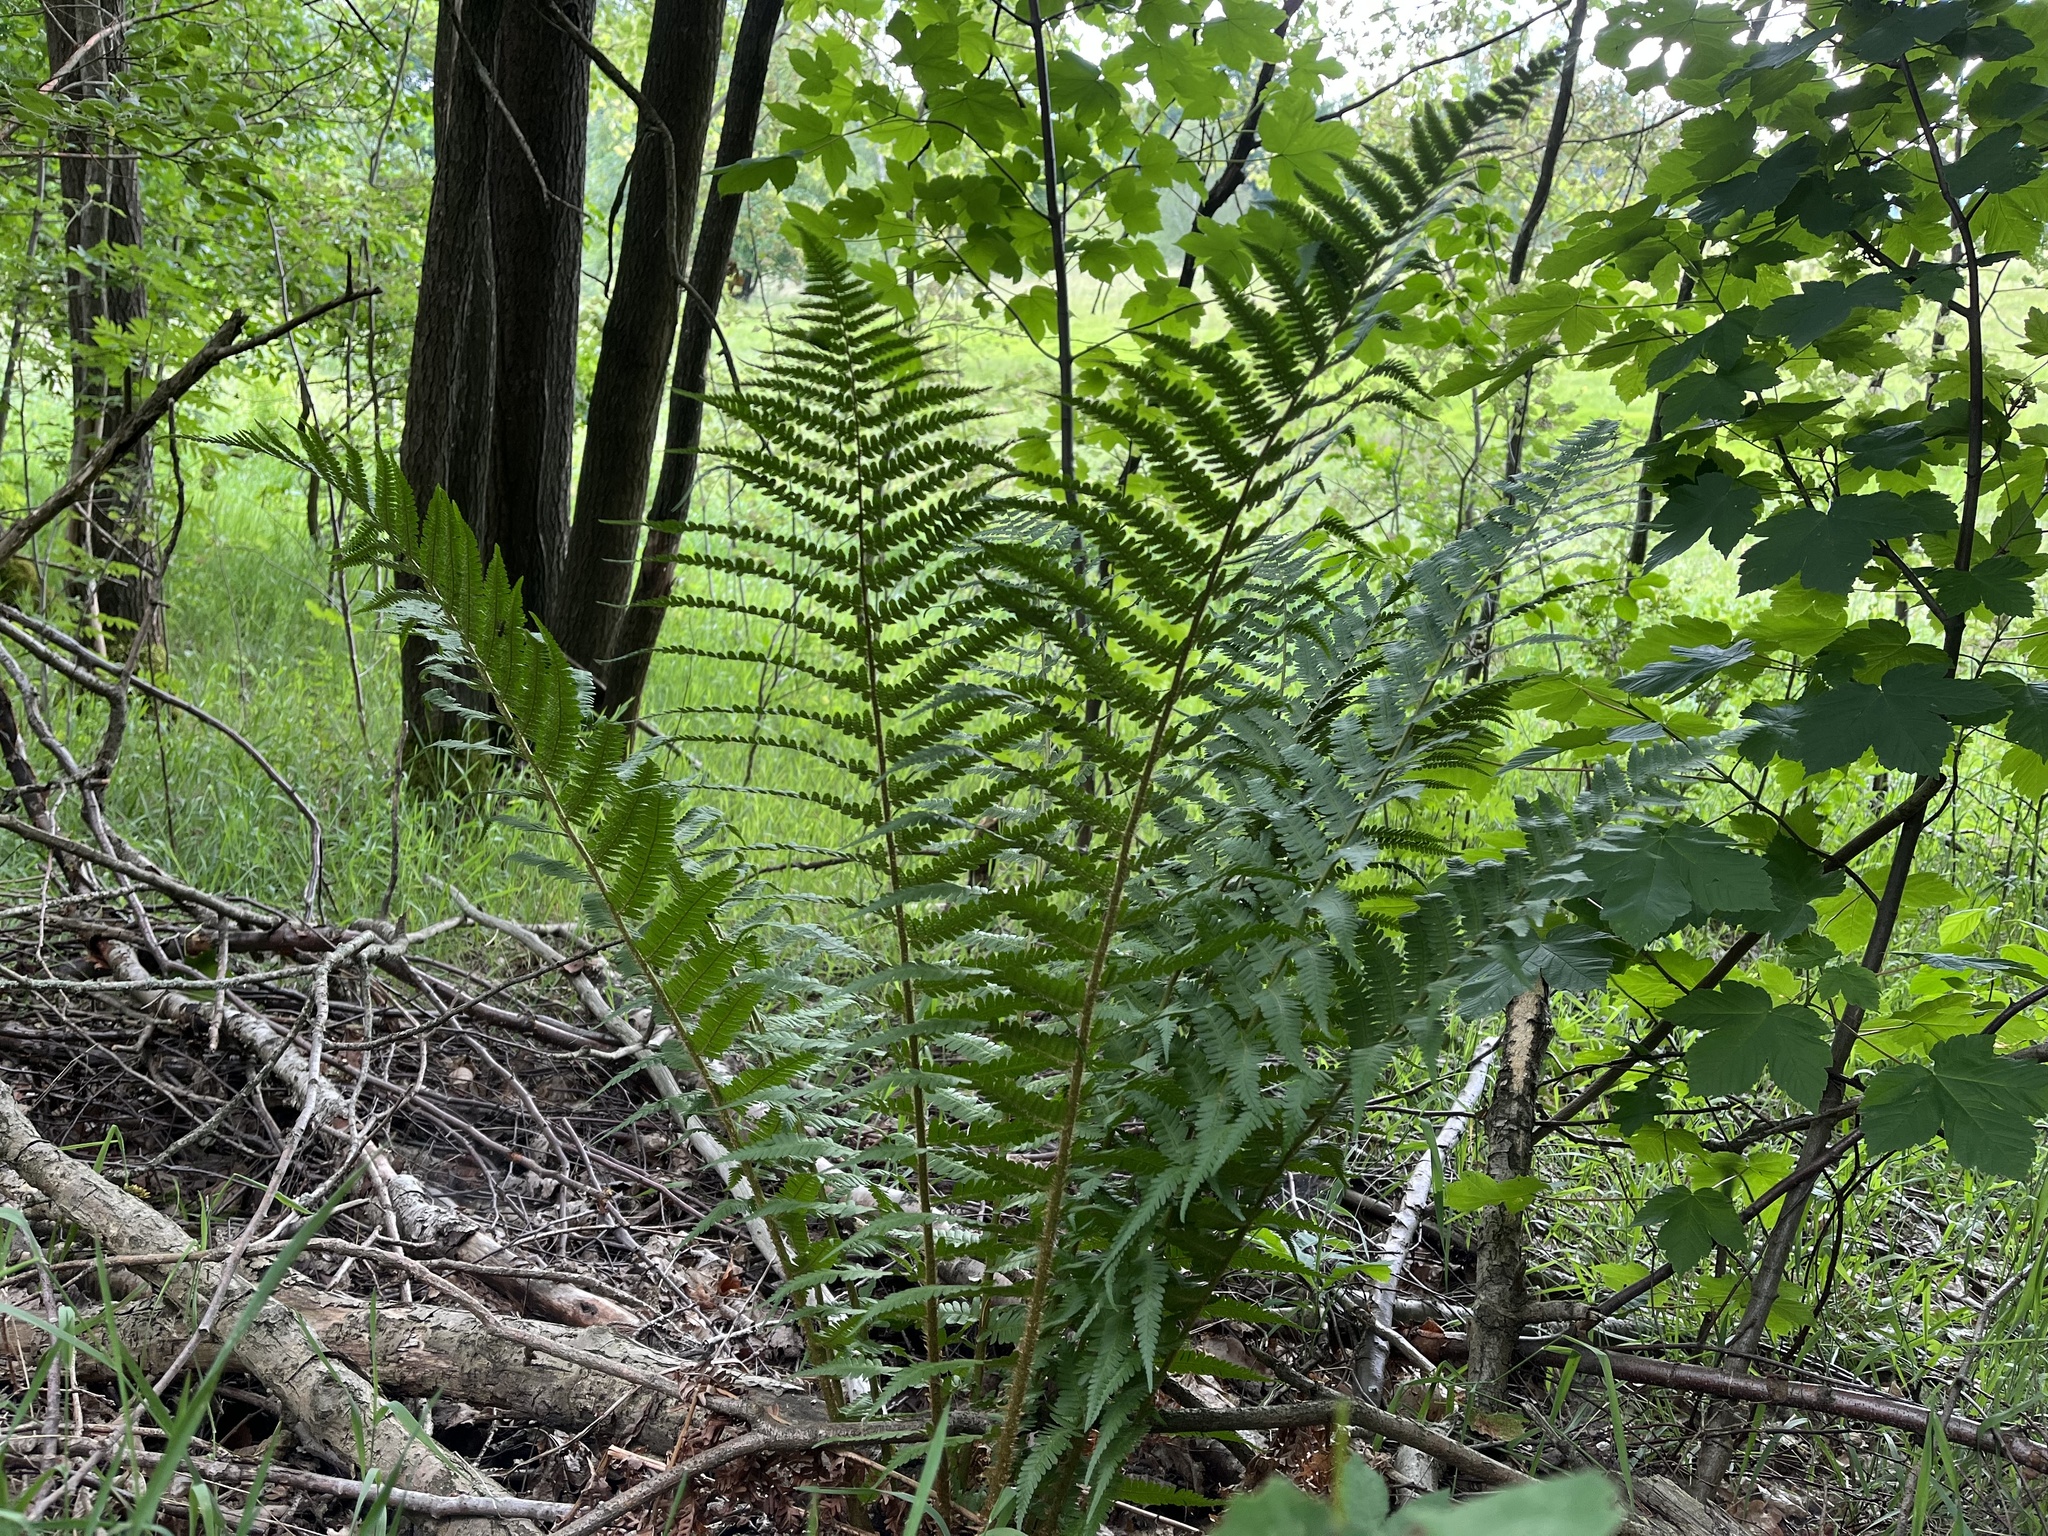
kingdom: Plantae
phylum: Tracheophyta
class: Polypodiopsida
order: Polypodiales
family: Dryopteridaceae
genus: Dryopteris
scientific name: Dryopteris filix-mas
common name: Male fern
